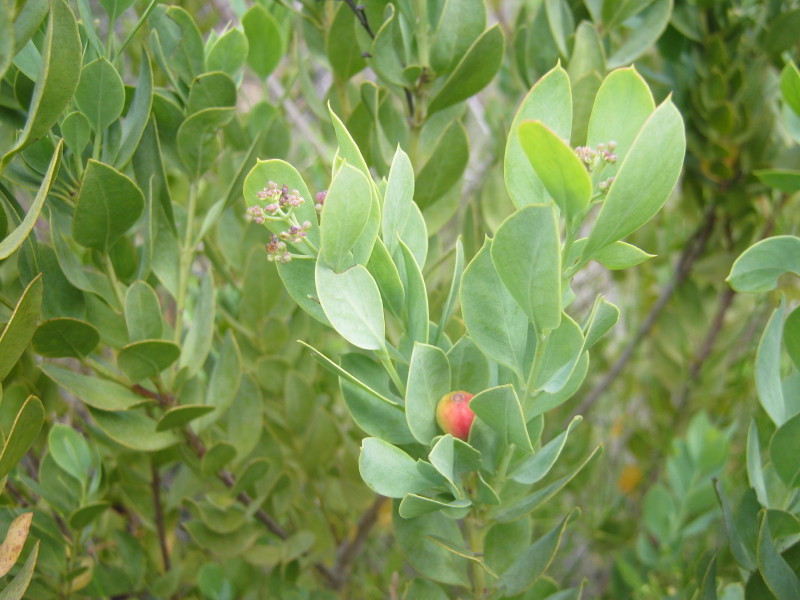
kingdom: Plantae
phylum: Tracheophyta
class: Magnoliopsida
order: Santalales
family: Santalaceae
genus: Osyris
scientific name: Osyris compressa
